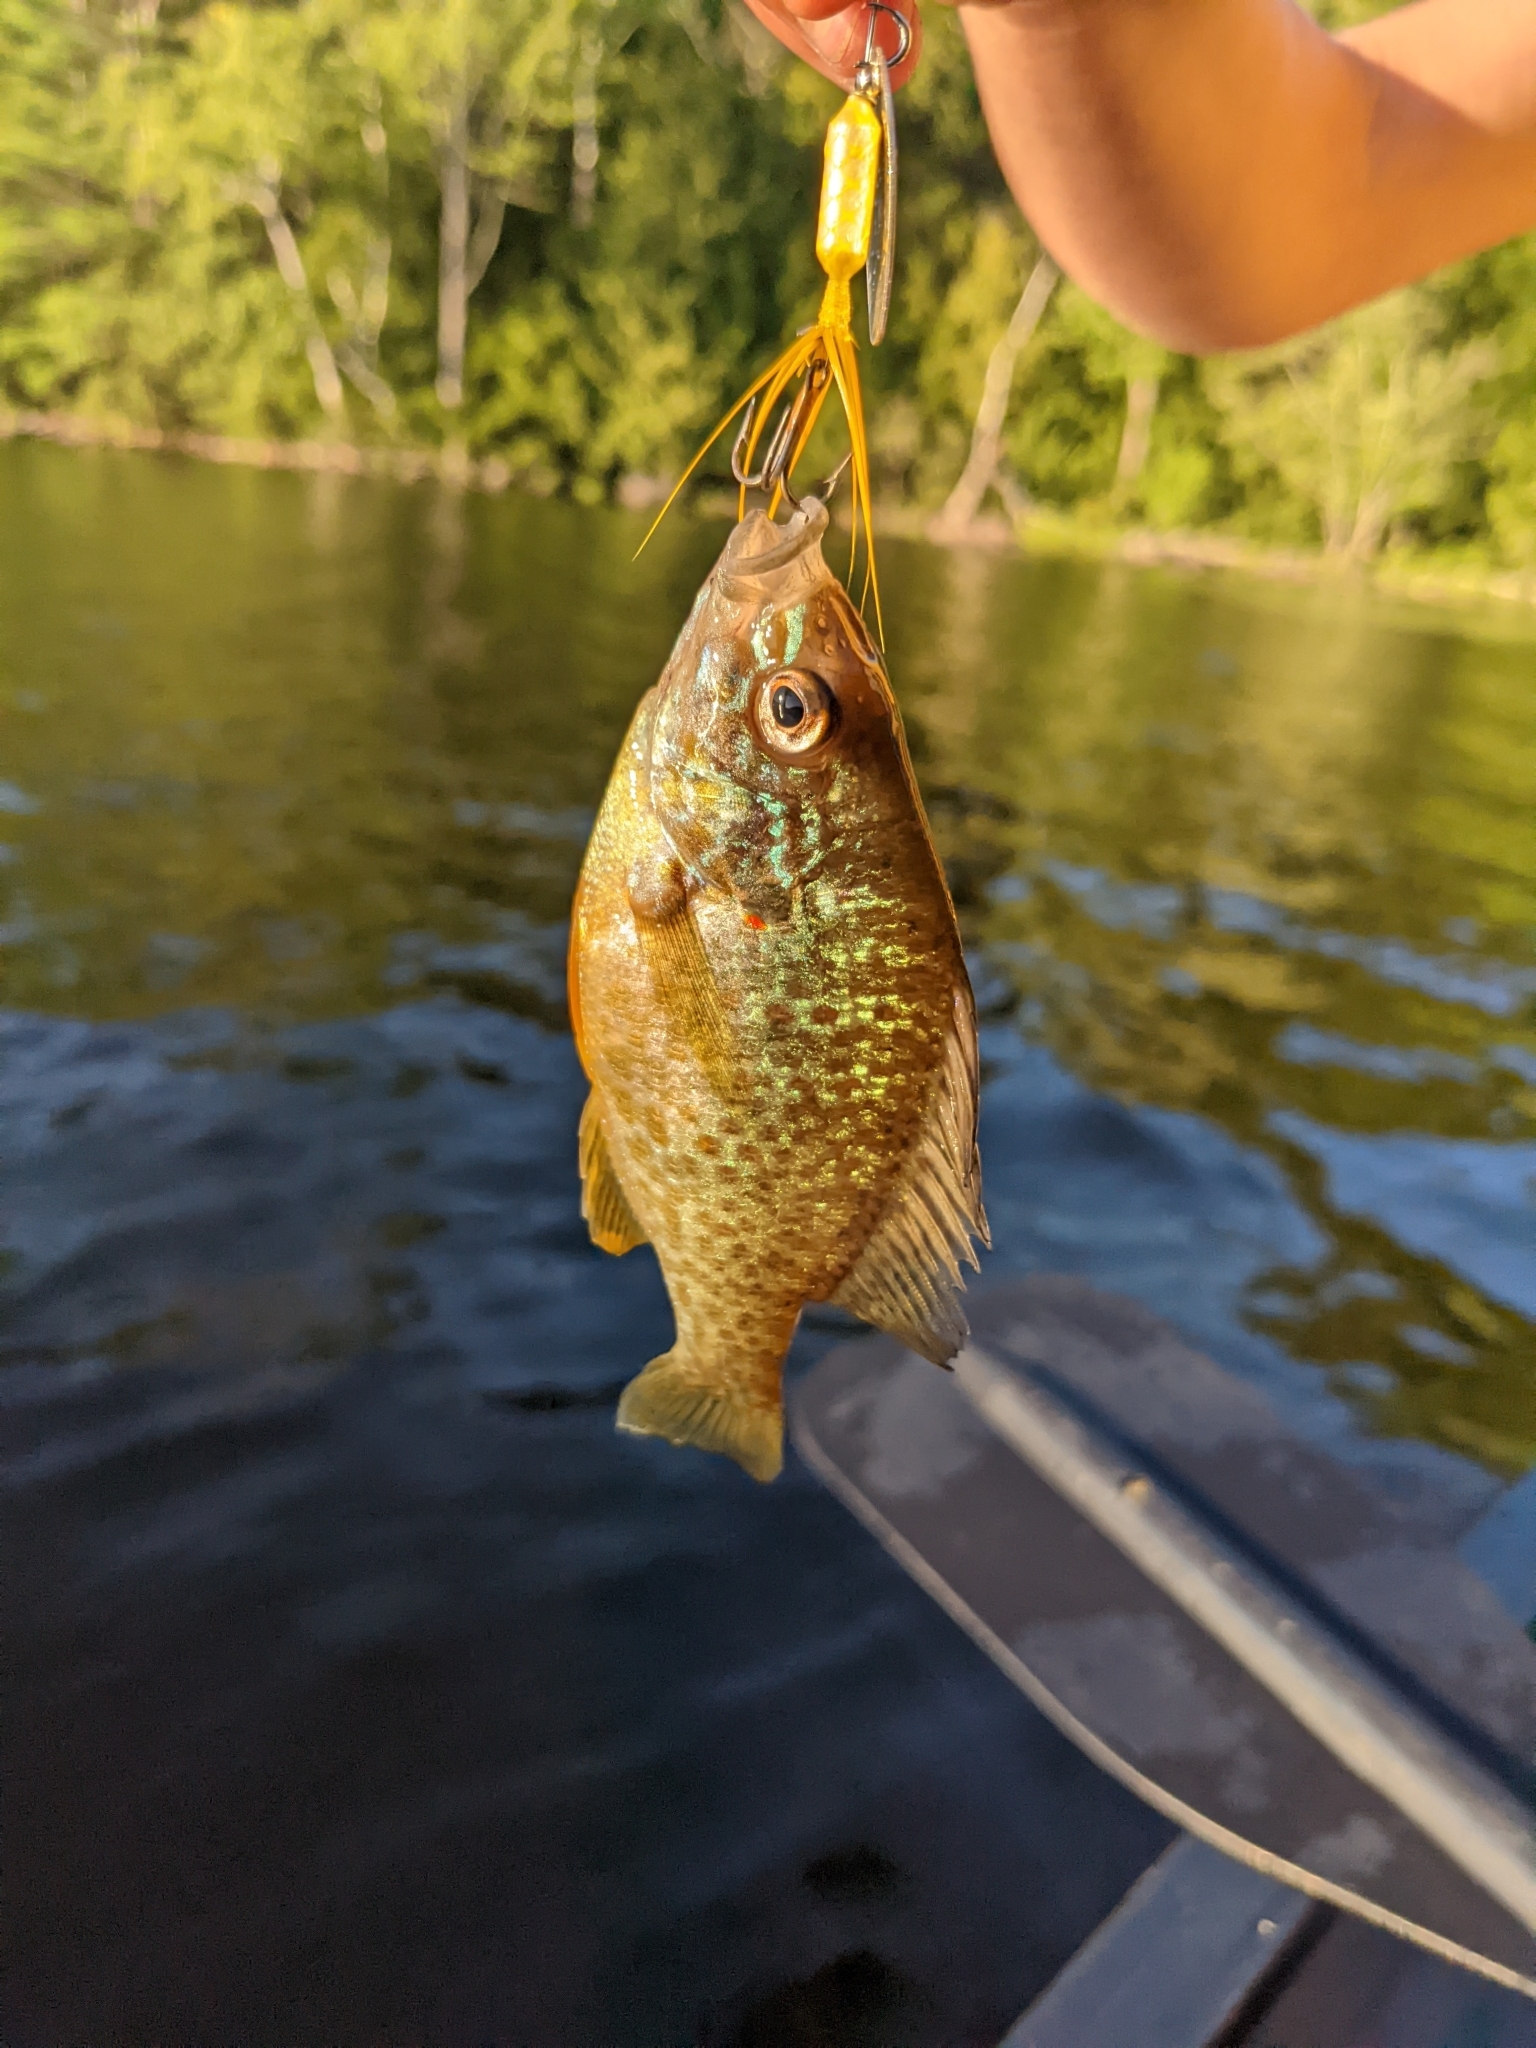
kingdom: Animalia
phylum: Chordata
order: Perciformes
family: Centrarchidae
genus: Lepomis
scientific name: Lepomis gibbosus
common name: Pumpkinseed
